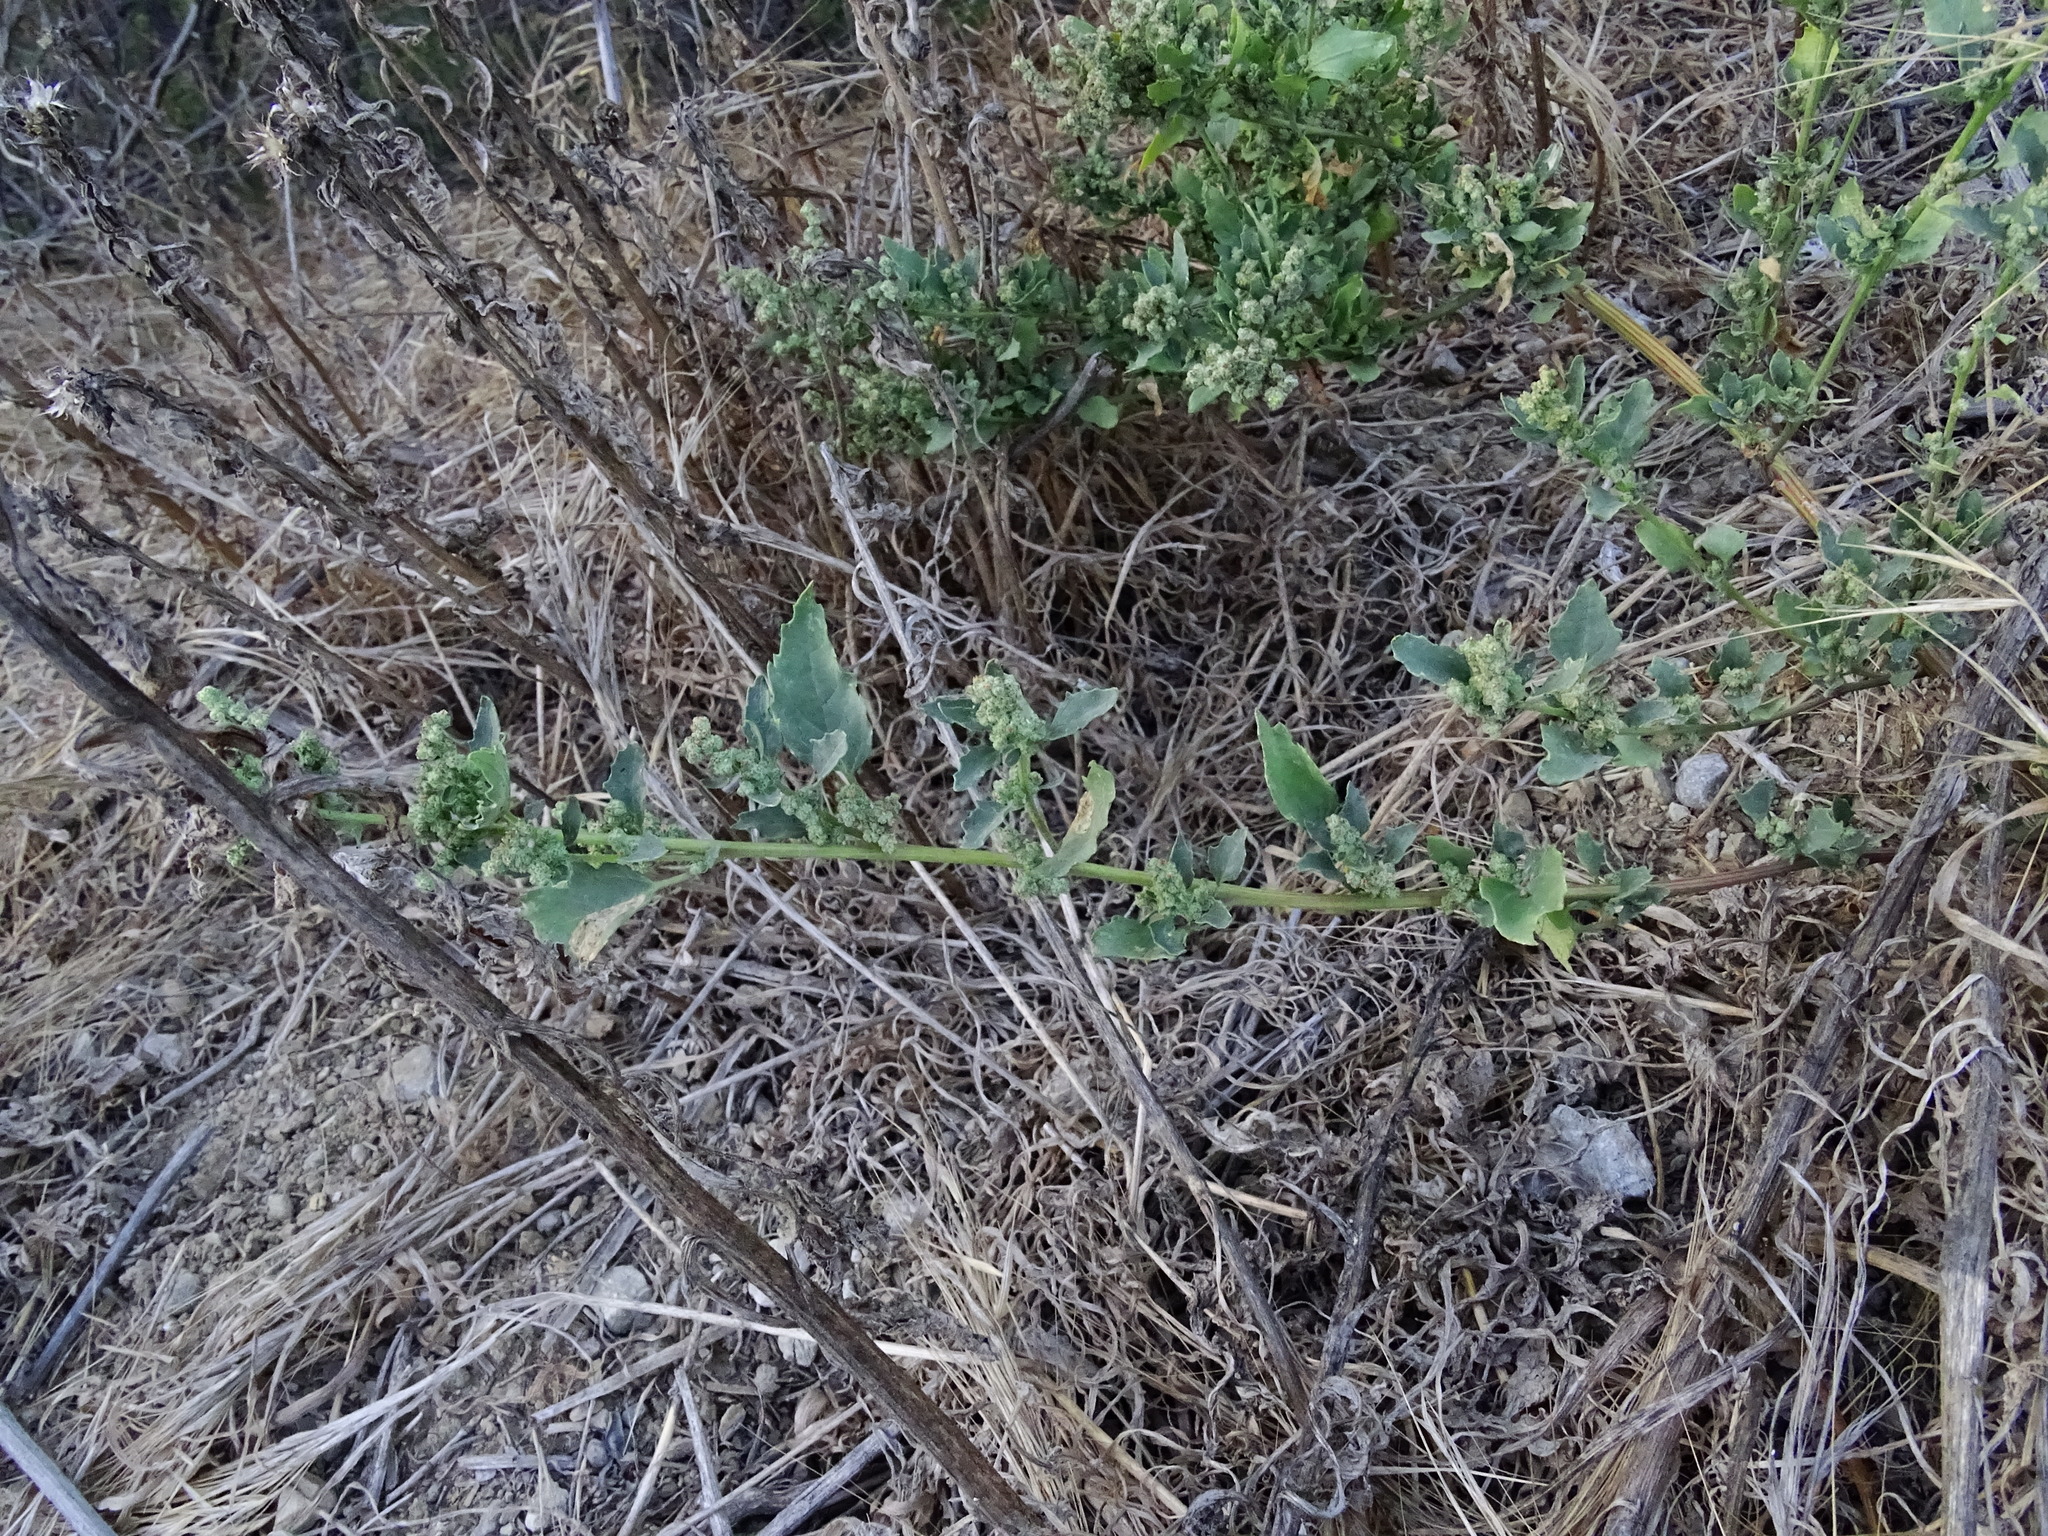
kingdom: Plantae
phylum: Tracheophyta
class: Magnoliopsida
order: Caryophyllales
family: Amaranthaceae
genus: Chenopodiastrum
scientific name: Chenopodiastrum murale
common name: Sowbane
